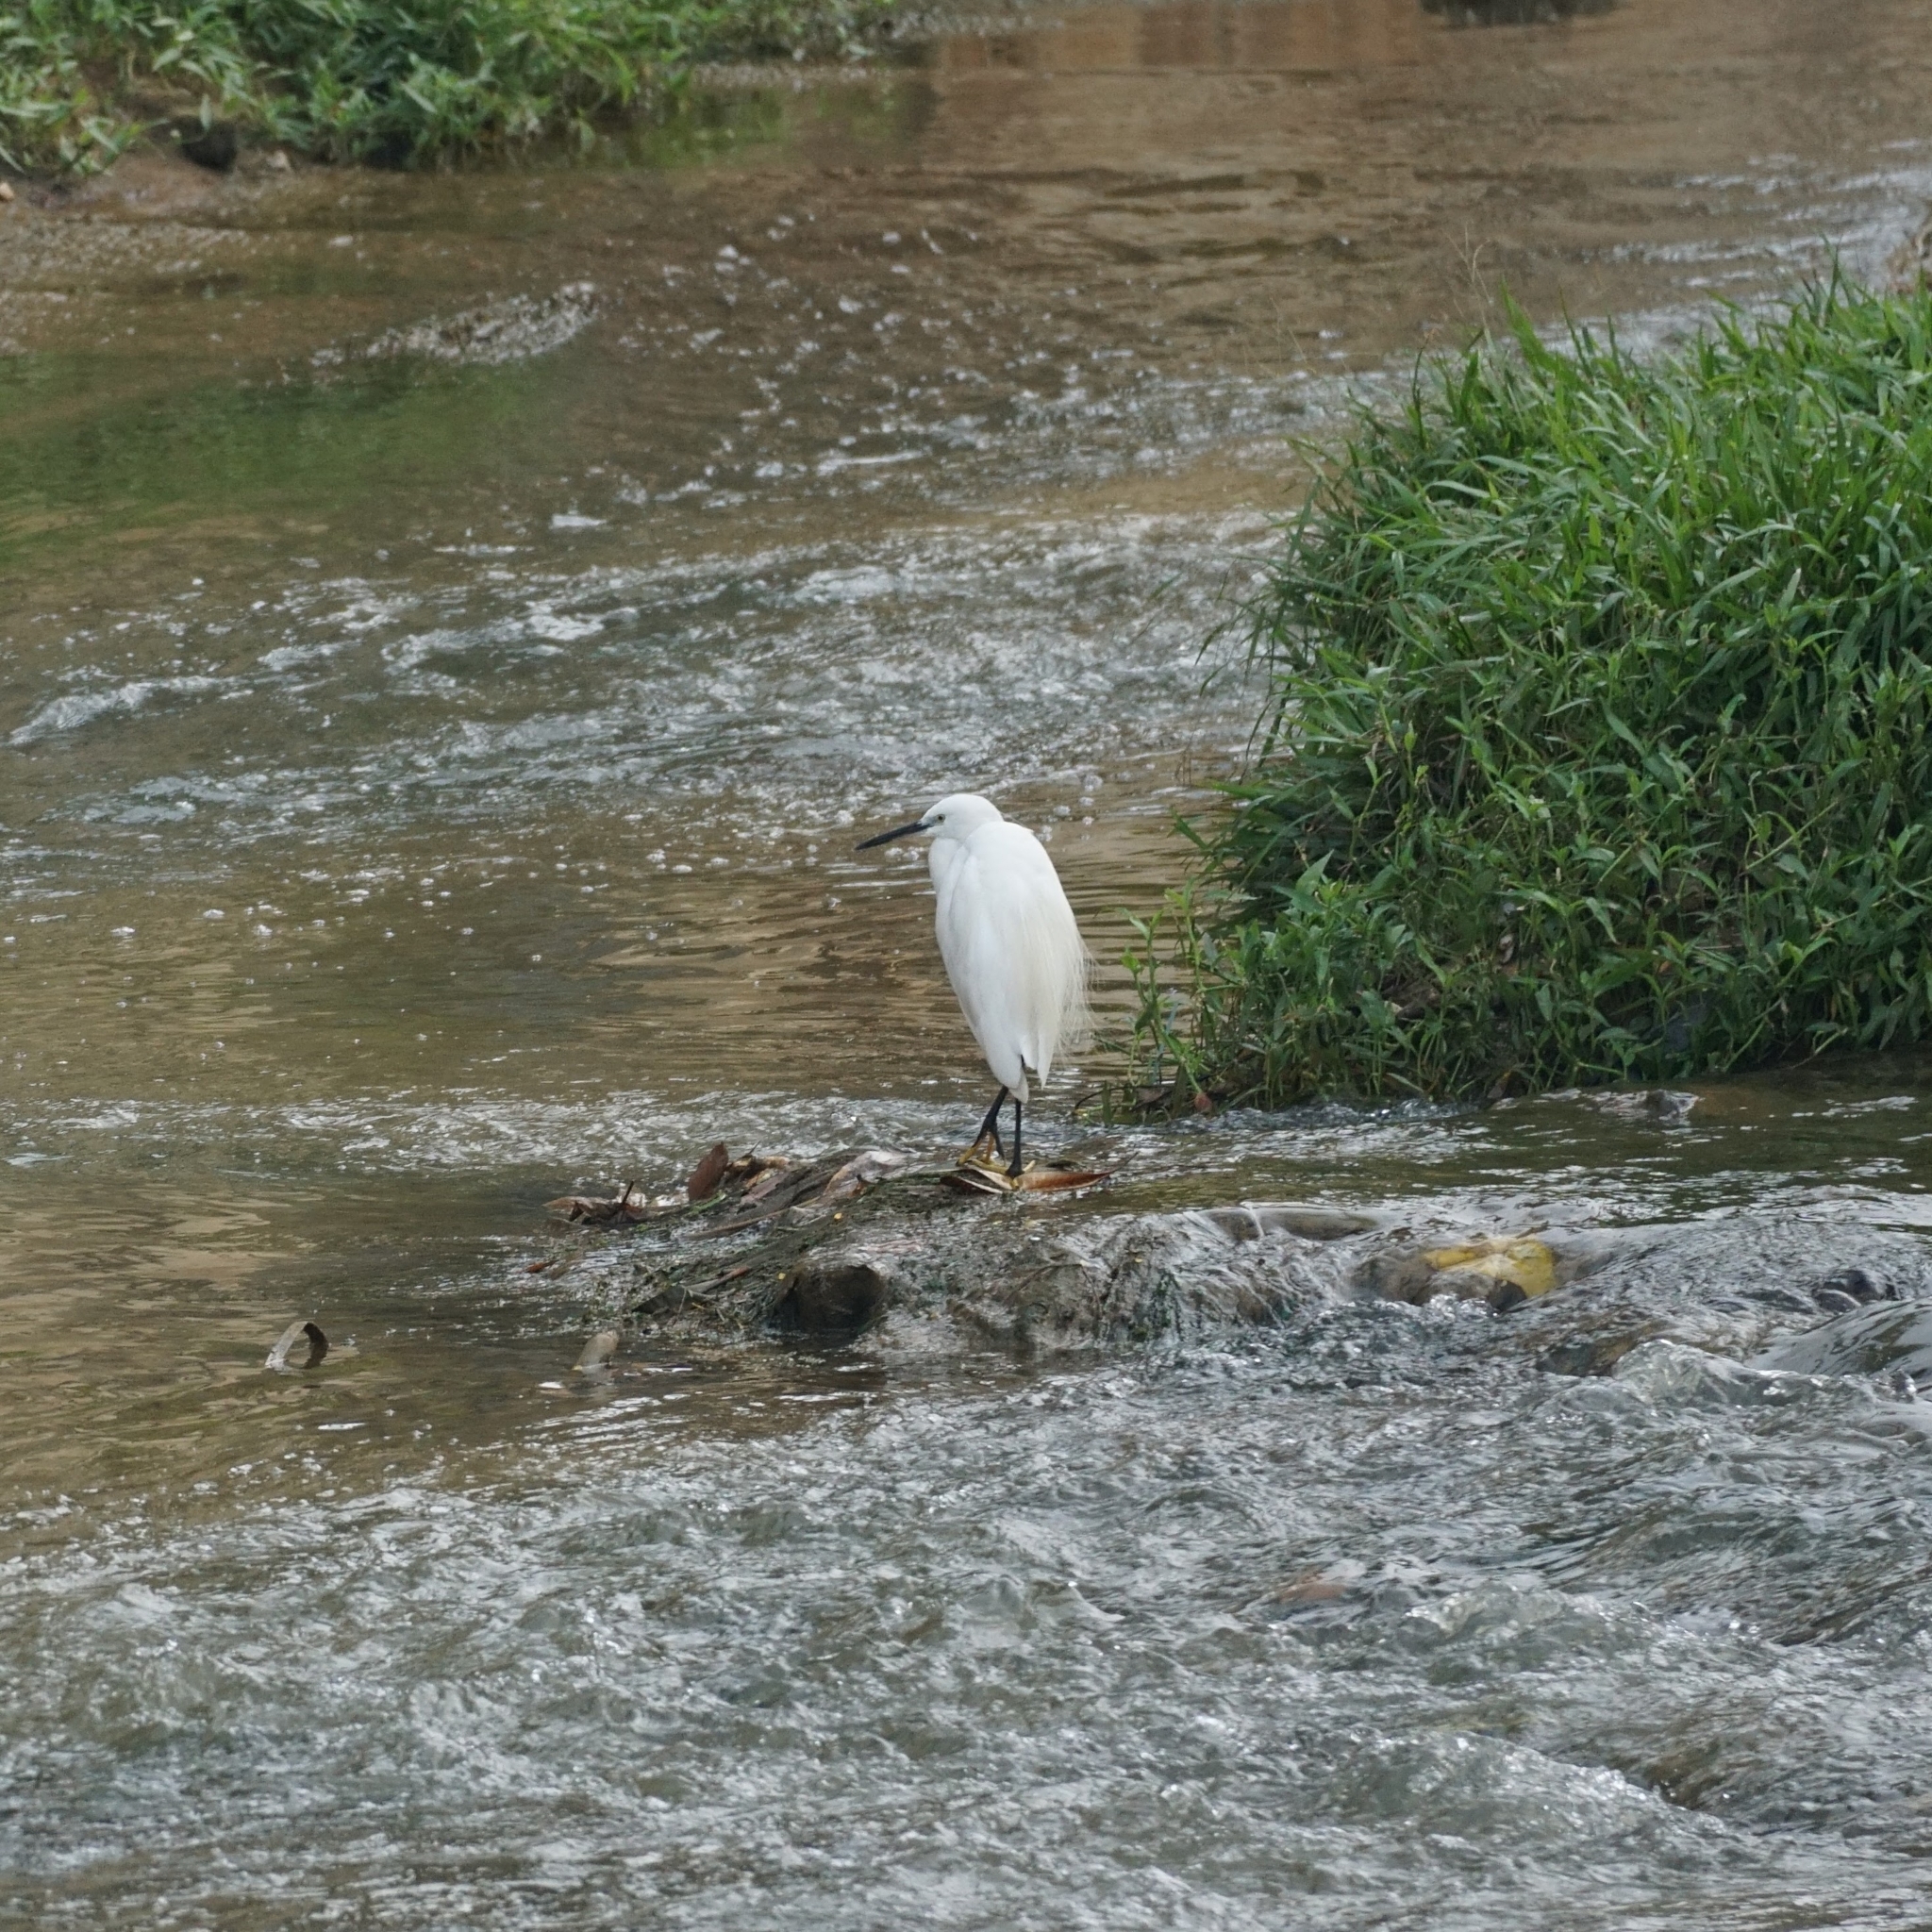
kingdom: Animalia
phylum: Chordata
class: Aves
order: Pelecaniformes
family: Ardeidae
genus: Egretta
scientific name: Egretta garzetta
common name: Little egret
